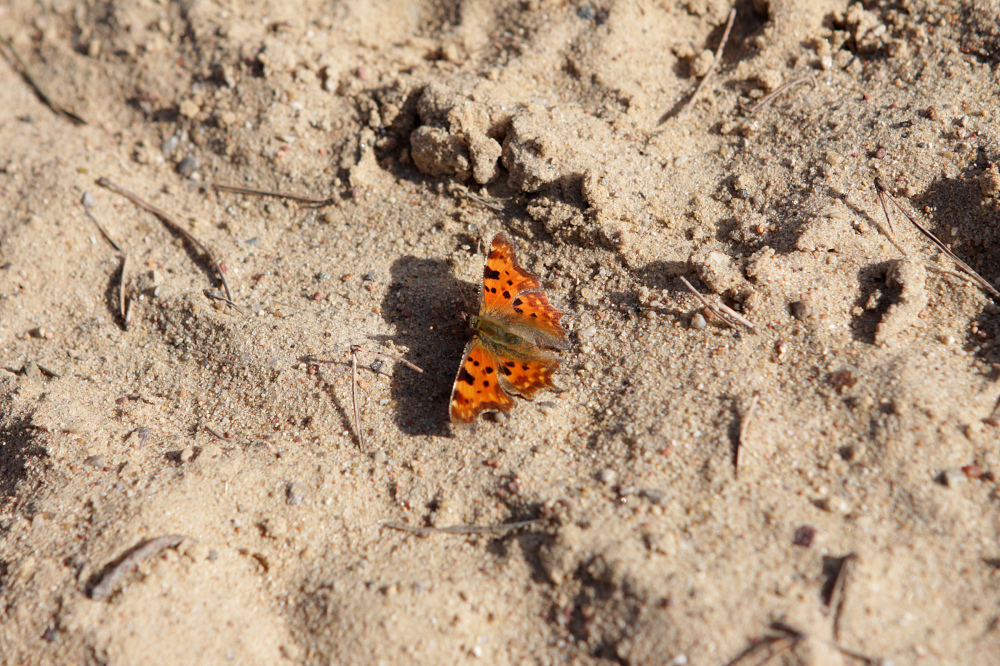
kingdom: Animalia
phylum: Arthropoda
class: Insecta
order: Lepidoptera
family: Nymphalidae
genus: Polygonia
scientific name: Polygonia c-album
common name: Comma
